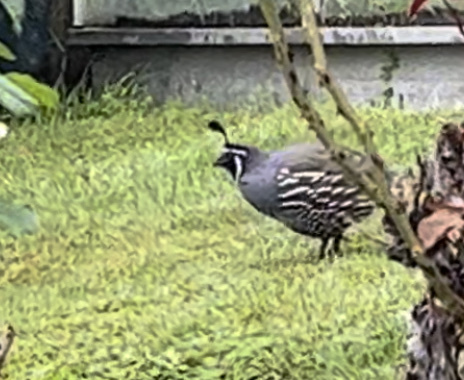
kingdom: Animalia
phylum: Chordata
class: Aves
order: Galliformes
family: Odontophoridae
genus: Callipepla
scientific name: Callipepla californica
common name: California quail
